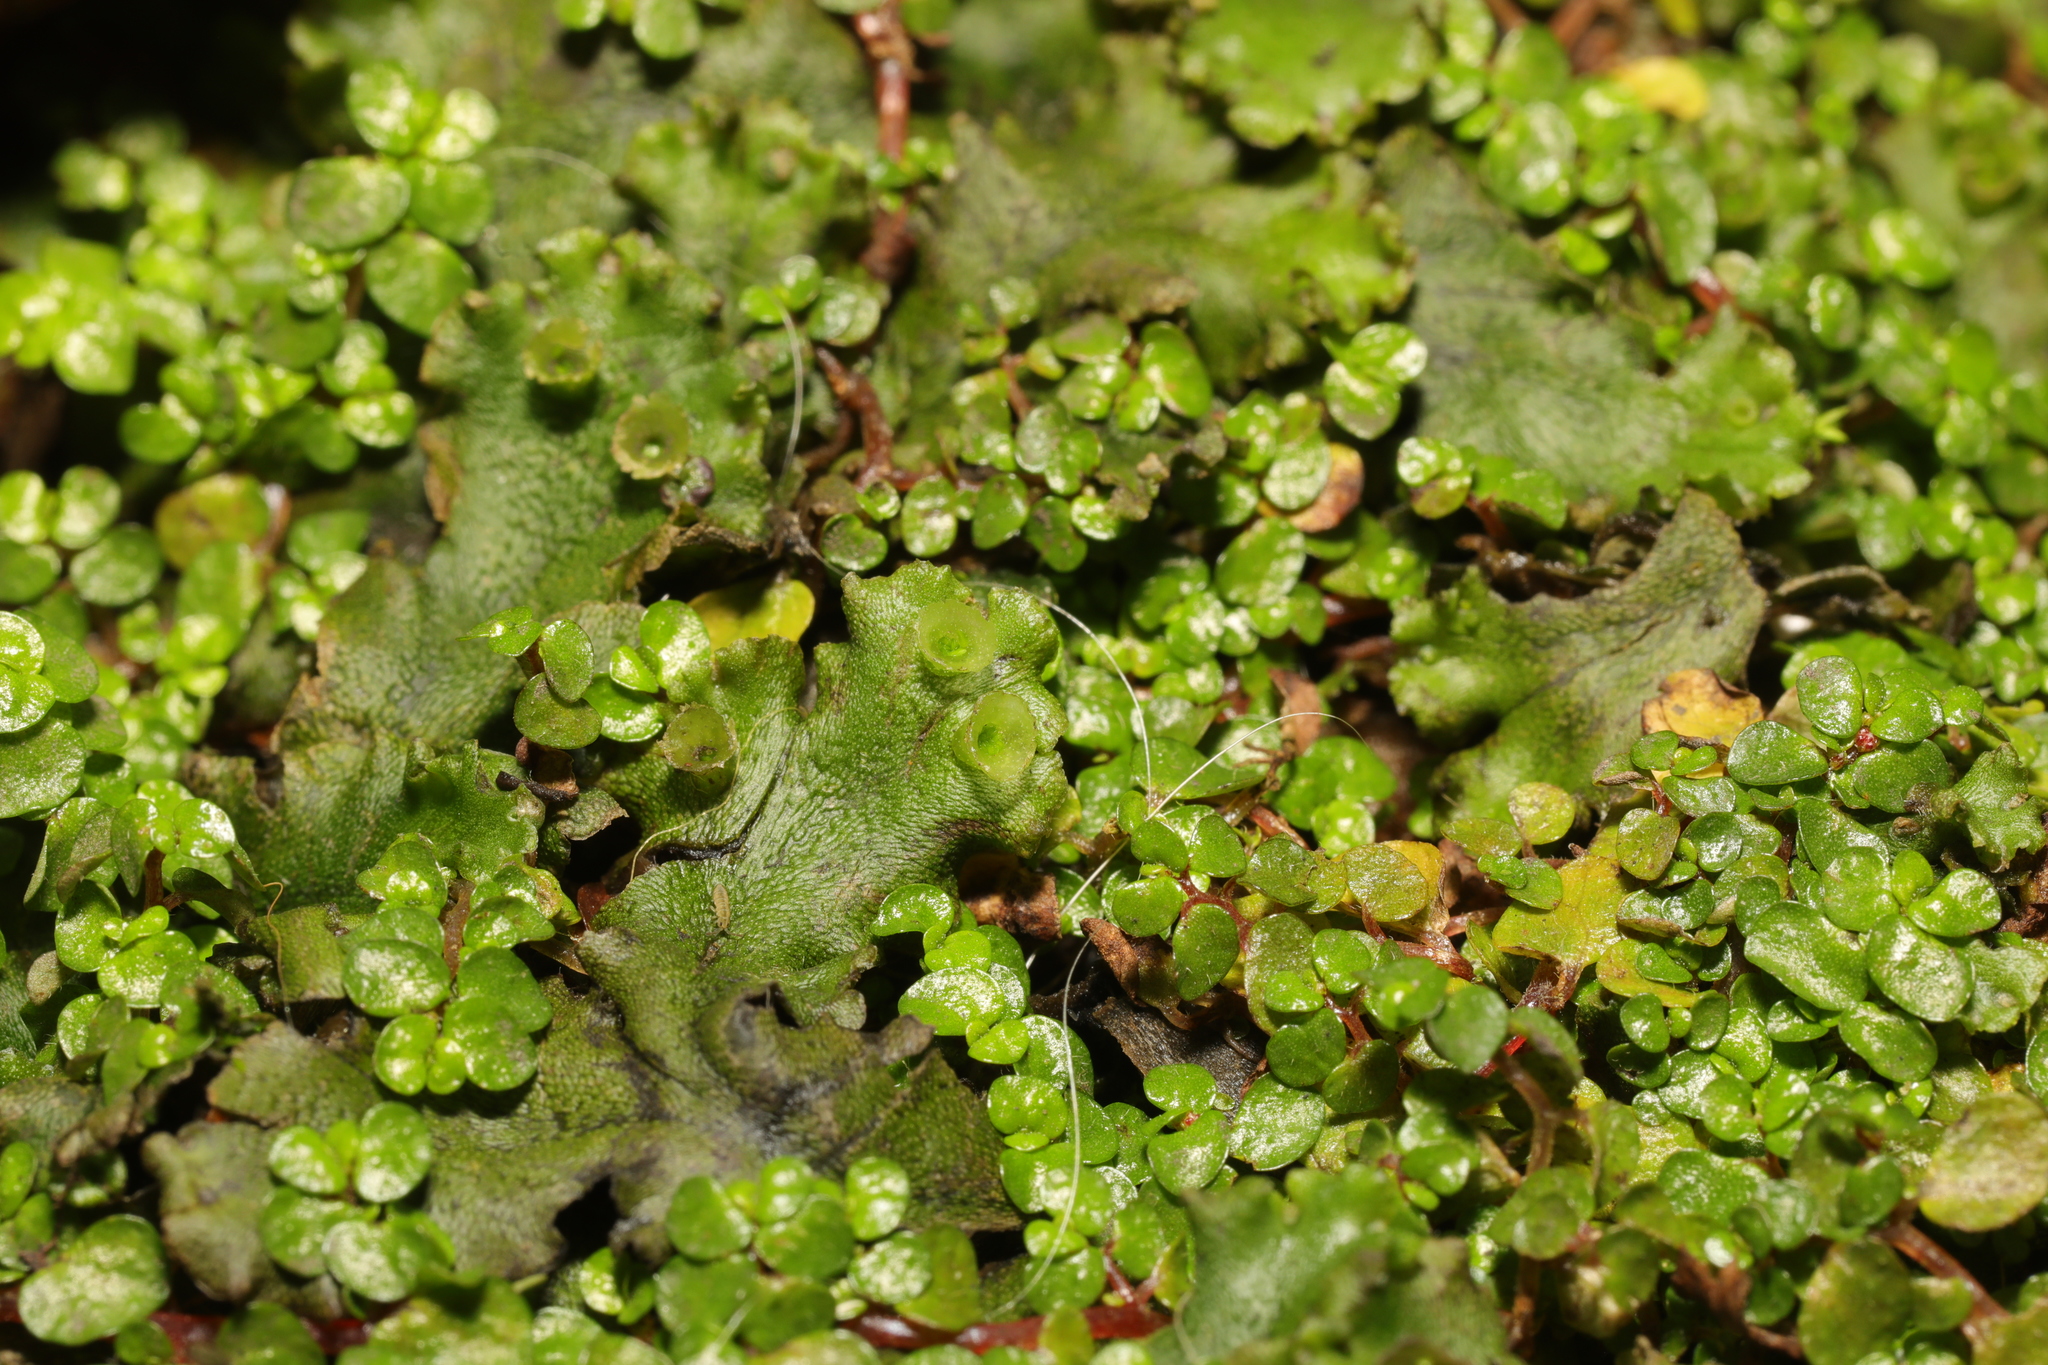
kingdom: Plantae
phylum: Marchantiophyta
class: Marchantiopsida
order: Marchantiales
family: Marchantiaceae
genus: Marchantia
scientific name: Marchantia polymorpha
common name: Common liverwort
